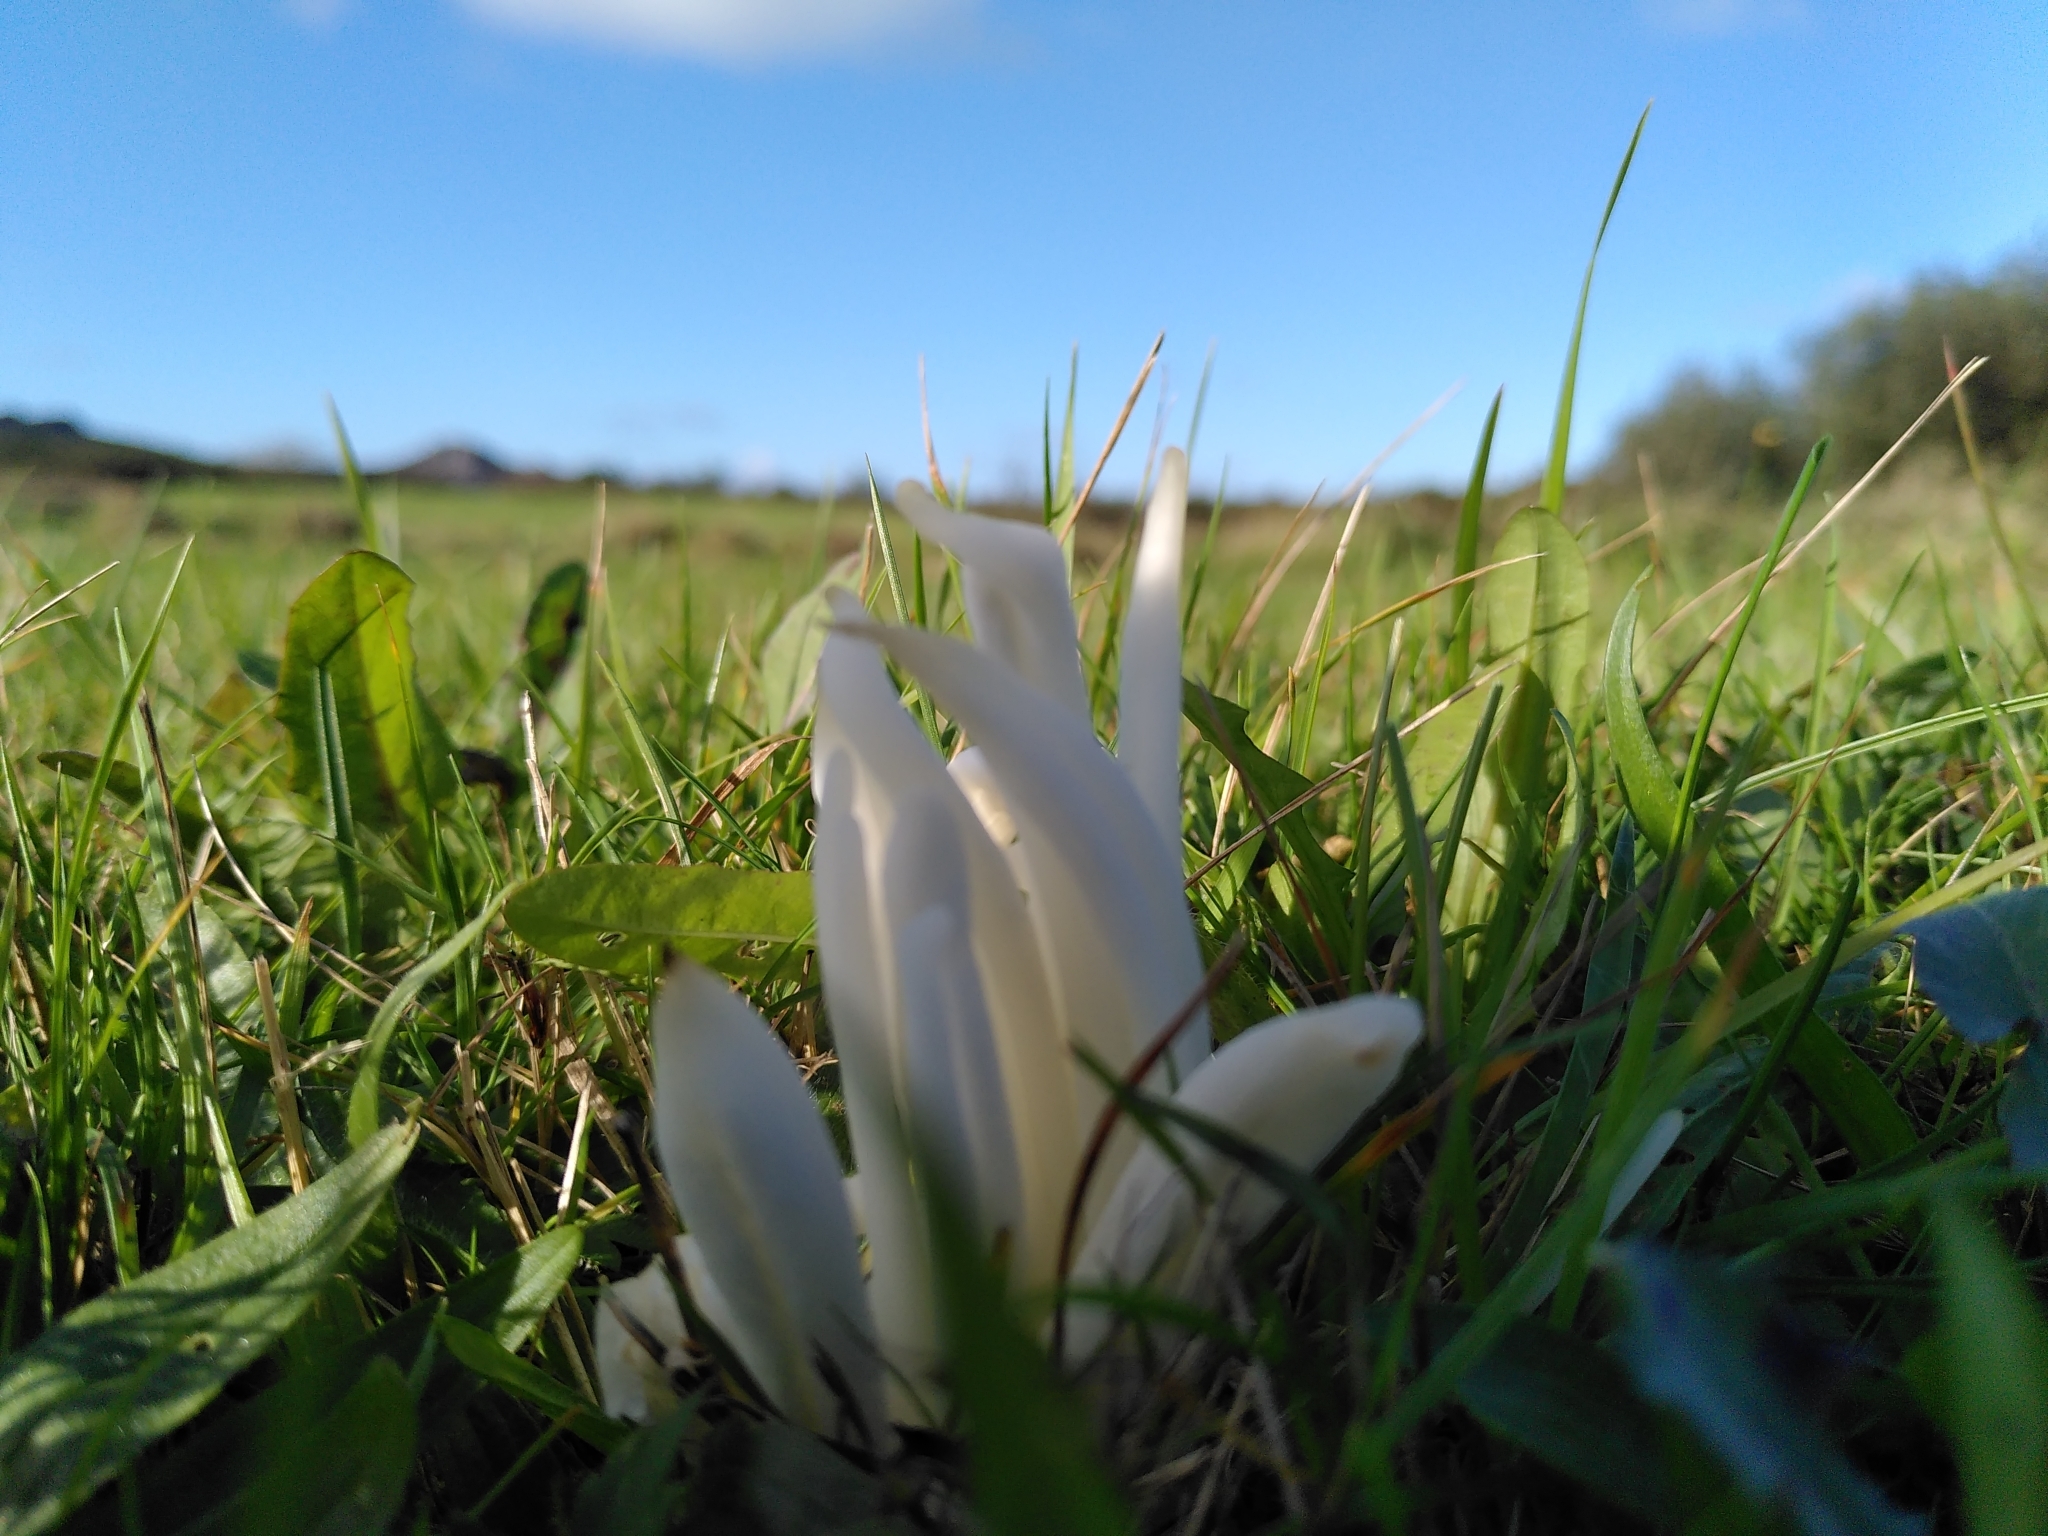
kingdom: Fungi
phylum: Basidiomycota
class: Agaricomycetes
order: Agaricales
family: Clavariaceae
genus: Clavaria
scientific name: Clavaria fragilis
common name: White spindles
